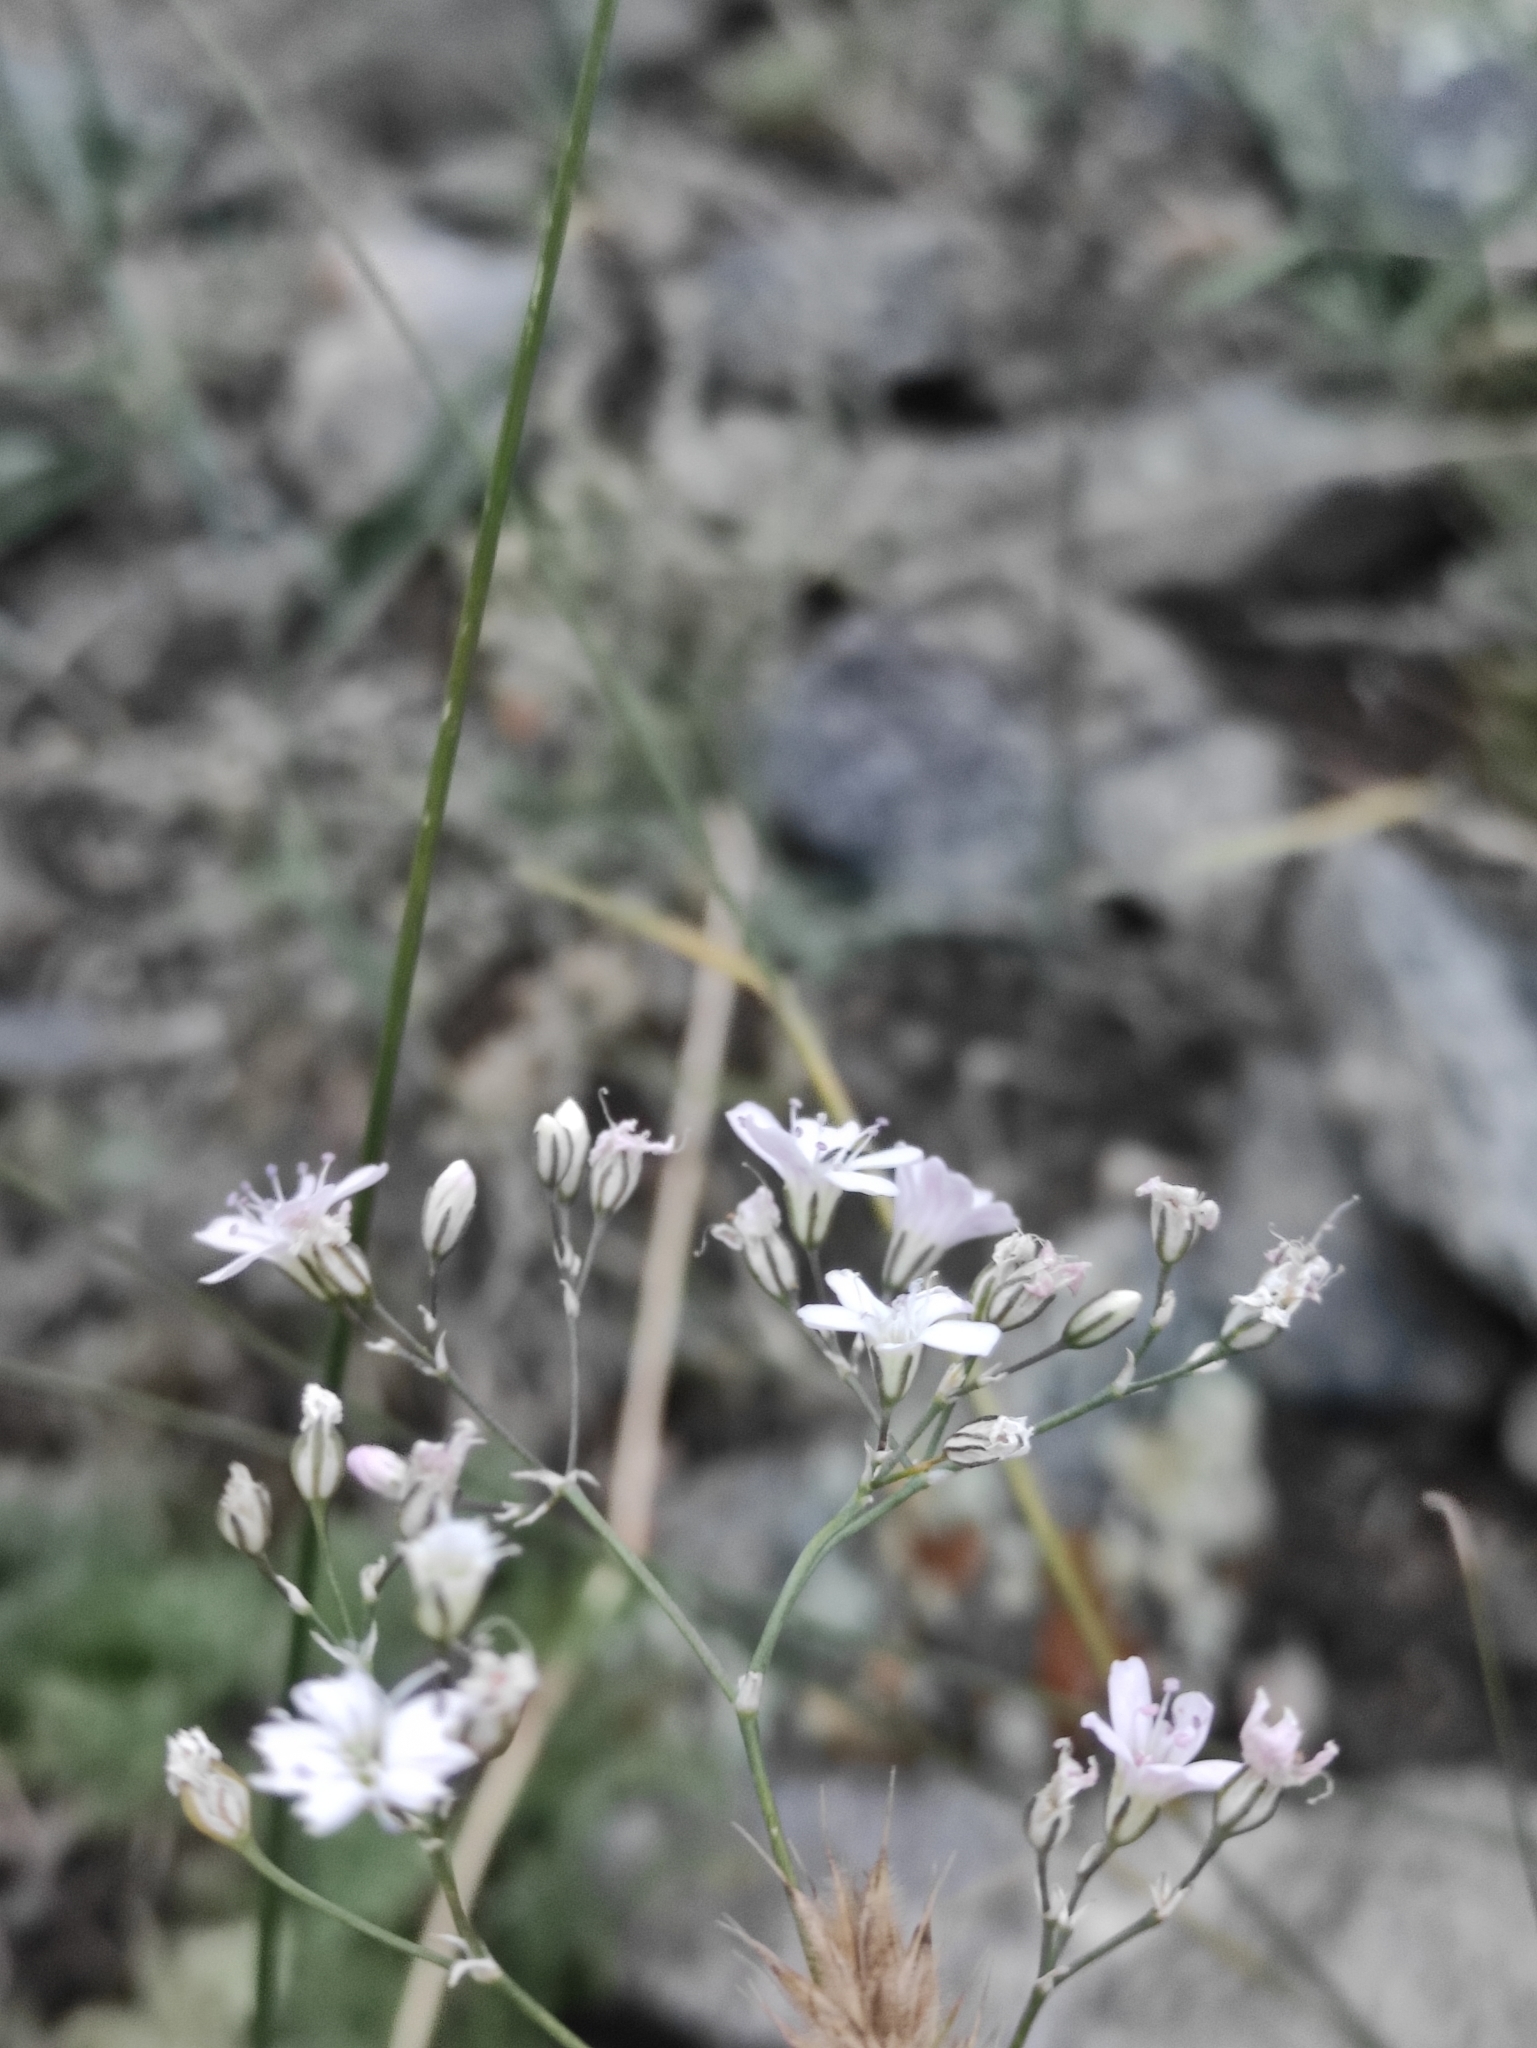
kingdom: Plantae
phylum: Tracheophyta
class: Magnoliopsida
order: Caryophyllales
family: Caryophyllaceae
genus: Gypsophila
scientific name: Gypsophila patrinii
